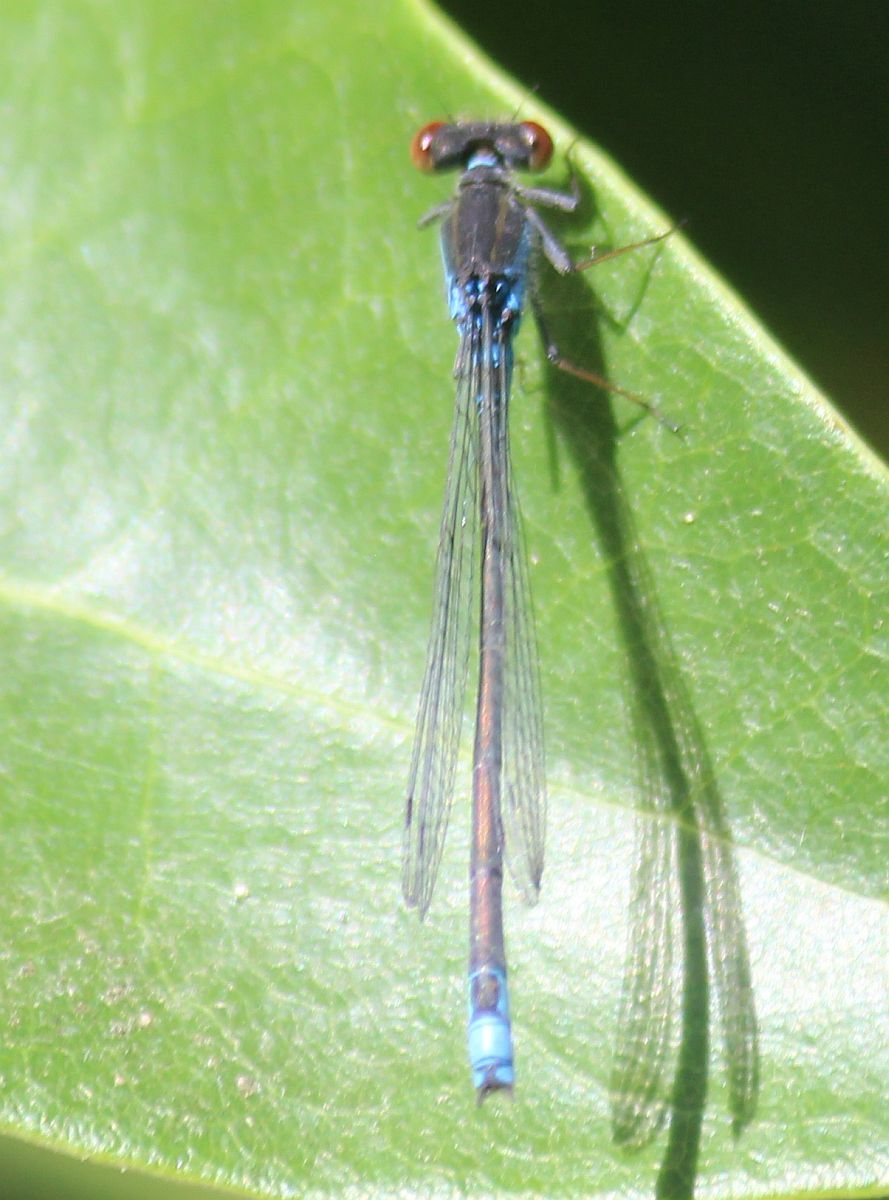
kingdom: Animalia
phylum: Arthropoda
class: Insecta
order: Odonata
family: Coenagrionidae
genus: Erythromma
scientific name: Erythromma viridulum
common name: Small red-eyed damselfly
